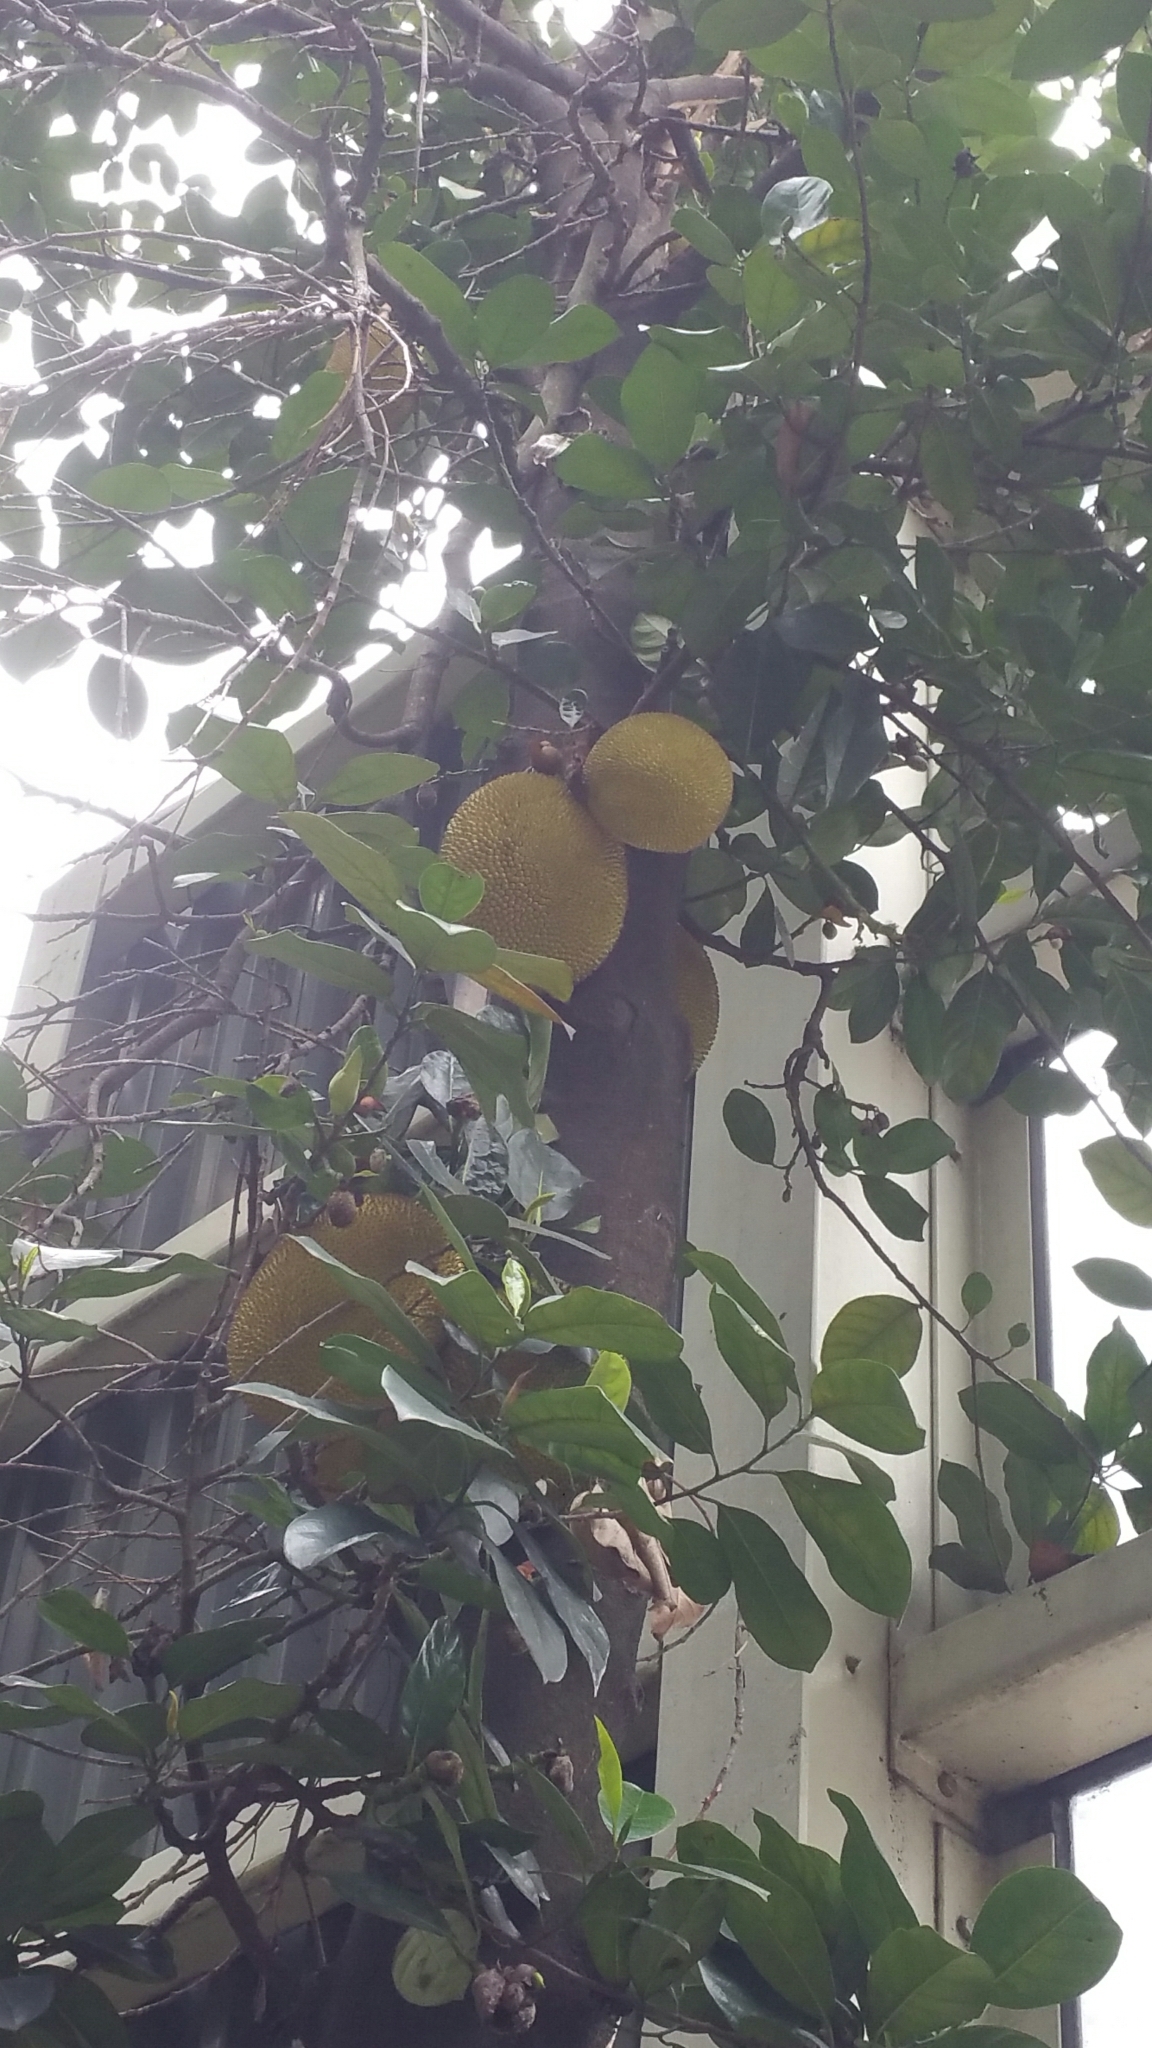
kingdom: Plantae
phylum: Tracheophyta
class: Magnoliopsida
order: Rosales
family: Moraceae
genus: Artocarpus
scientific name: Artocarpus heterophyllus
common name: Jackfruit
